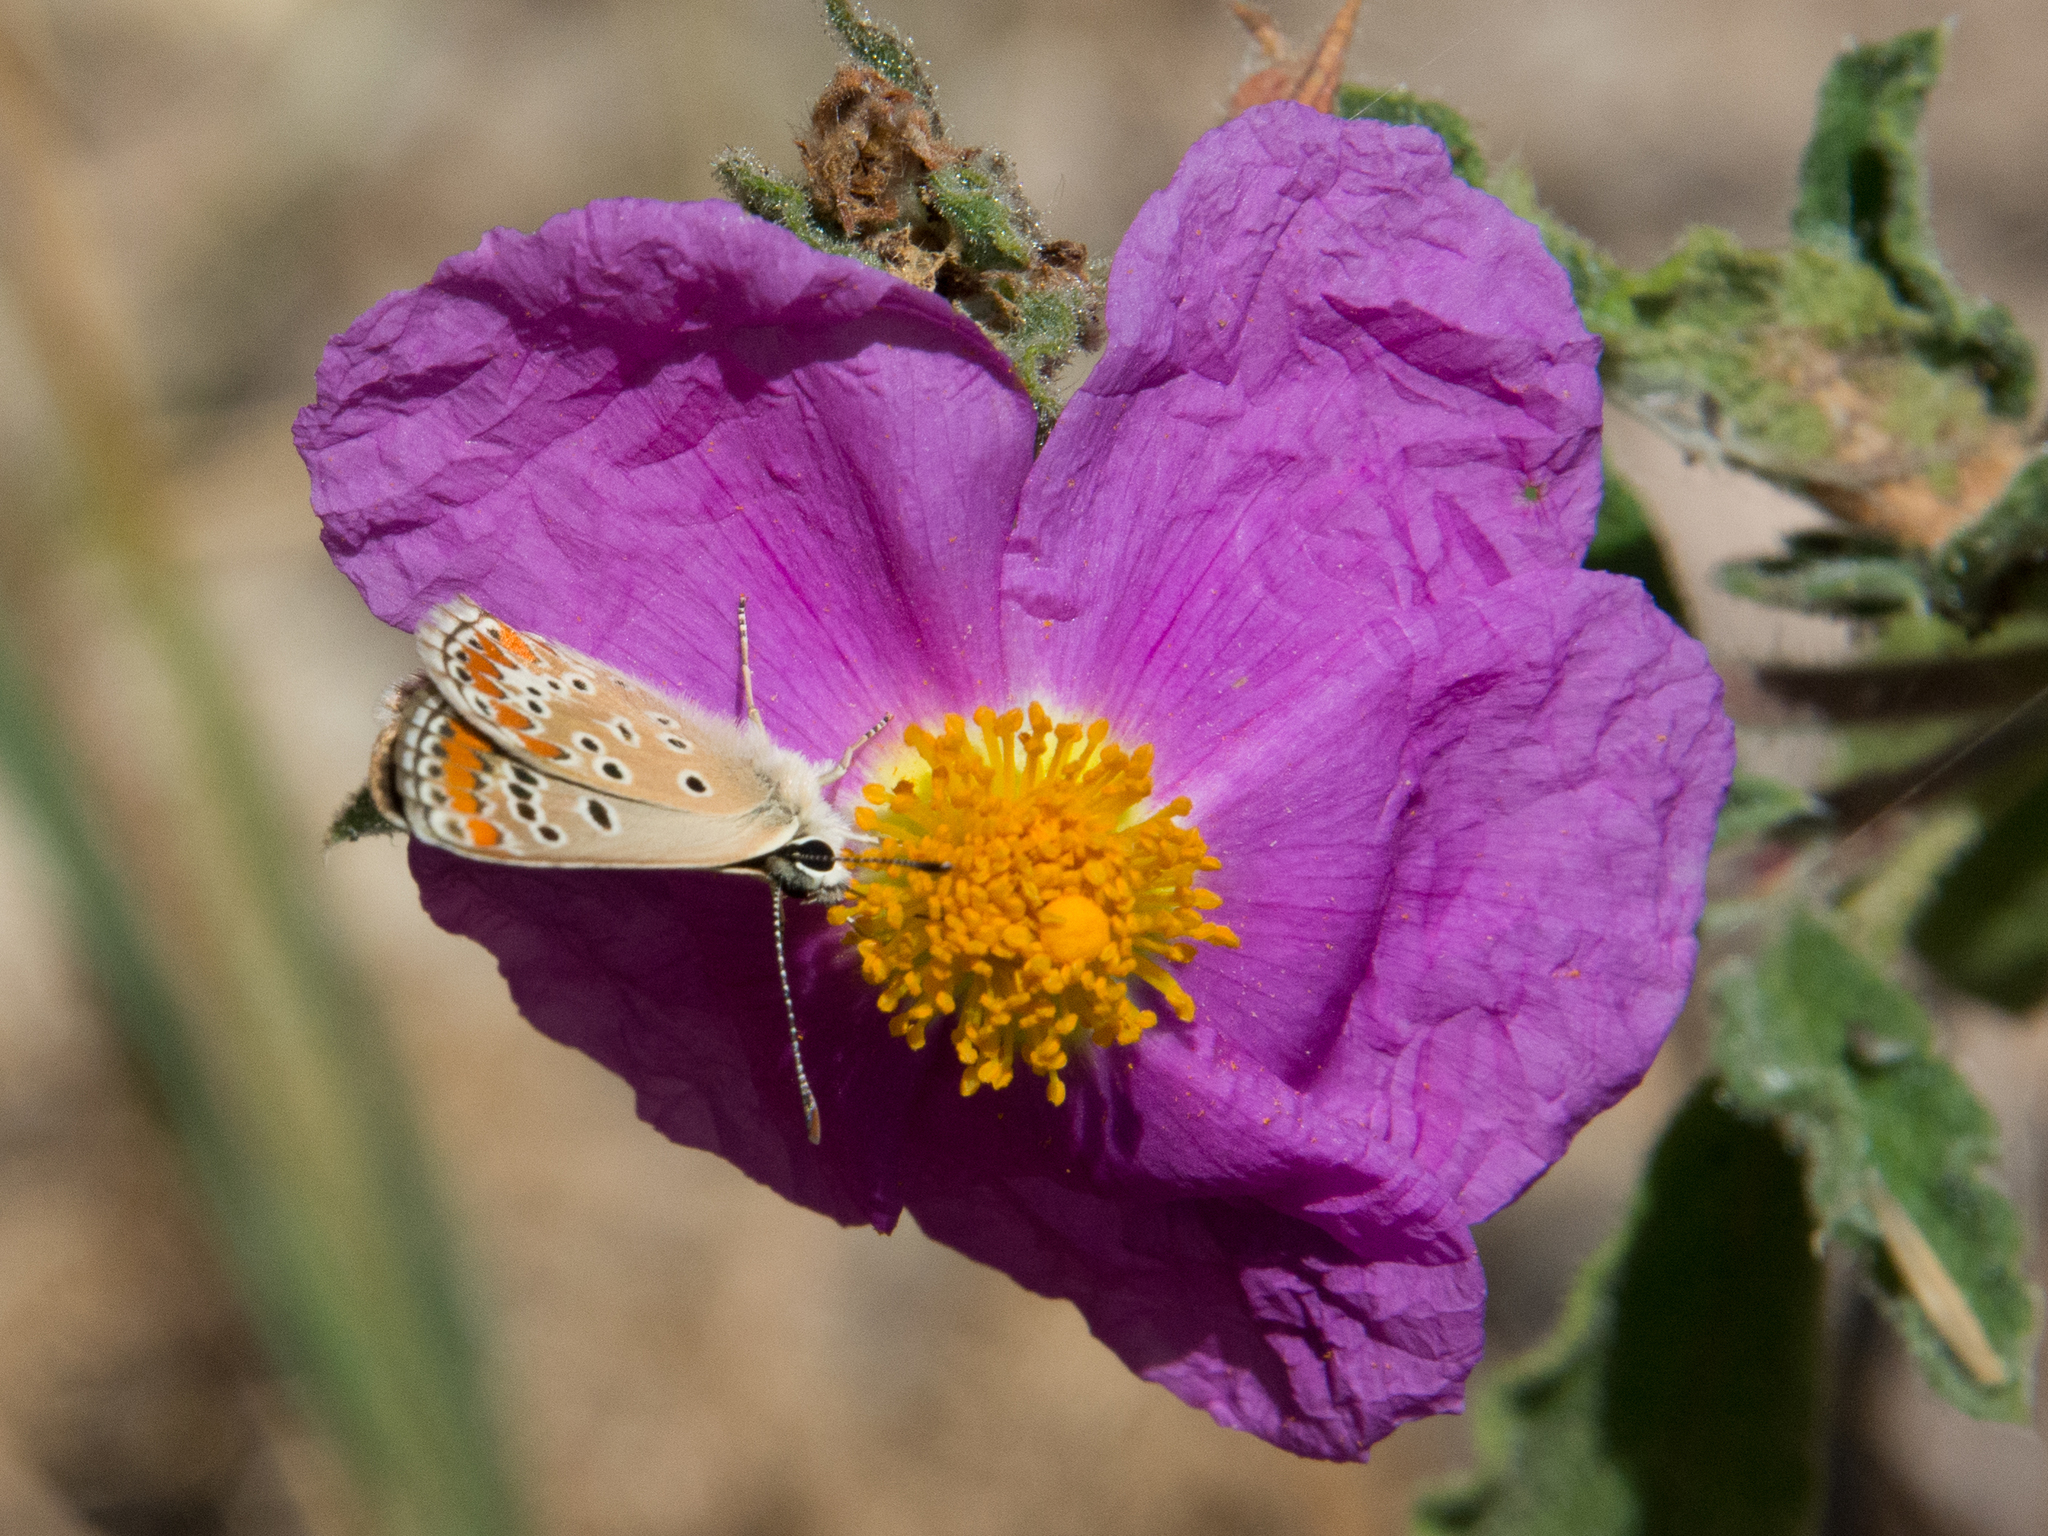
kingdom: Animalia
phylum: Arthropoda
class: Insecta
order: Lepidoptera
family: Lycaenidae
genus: Aricia
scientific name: Aricia agestis
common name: Brown argus
